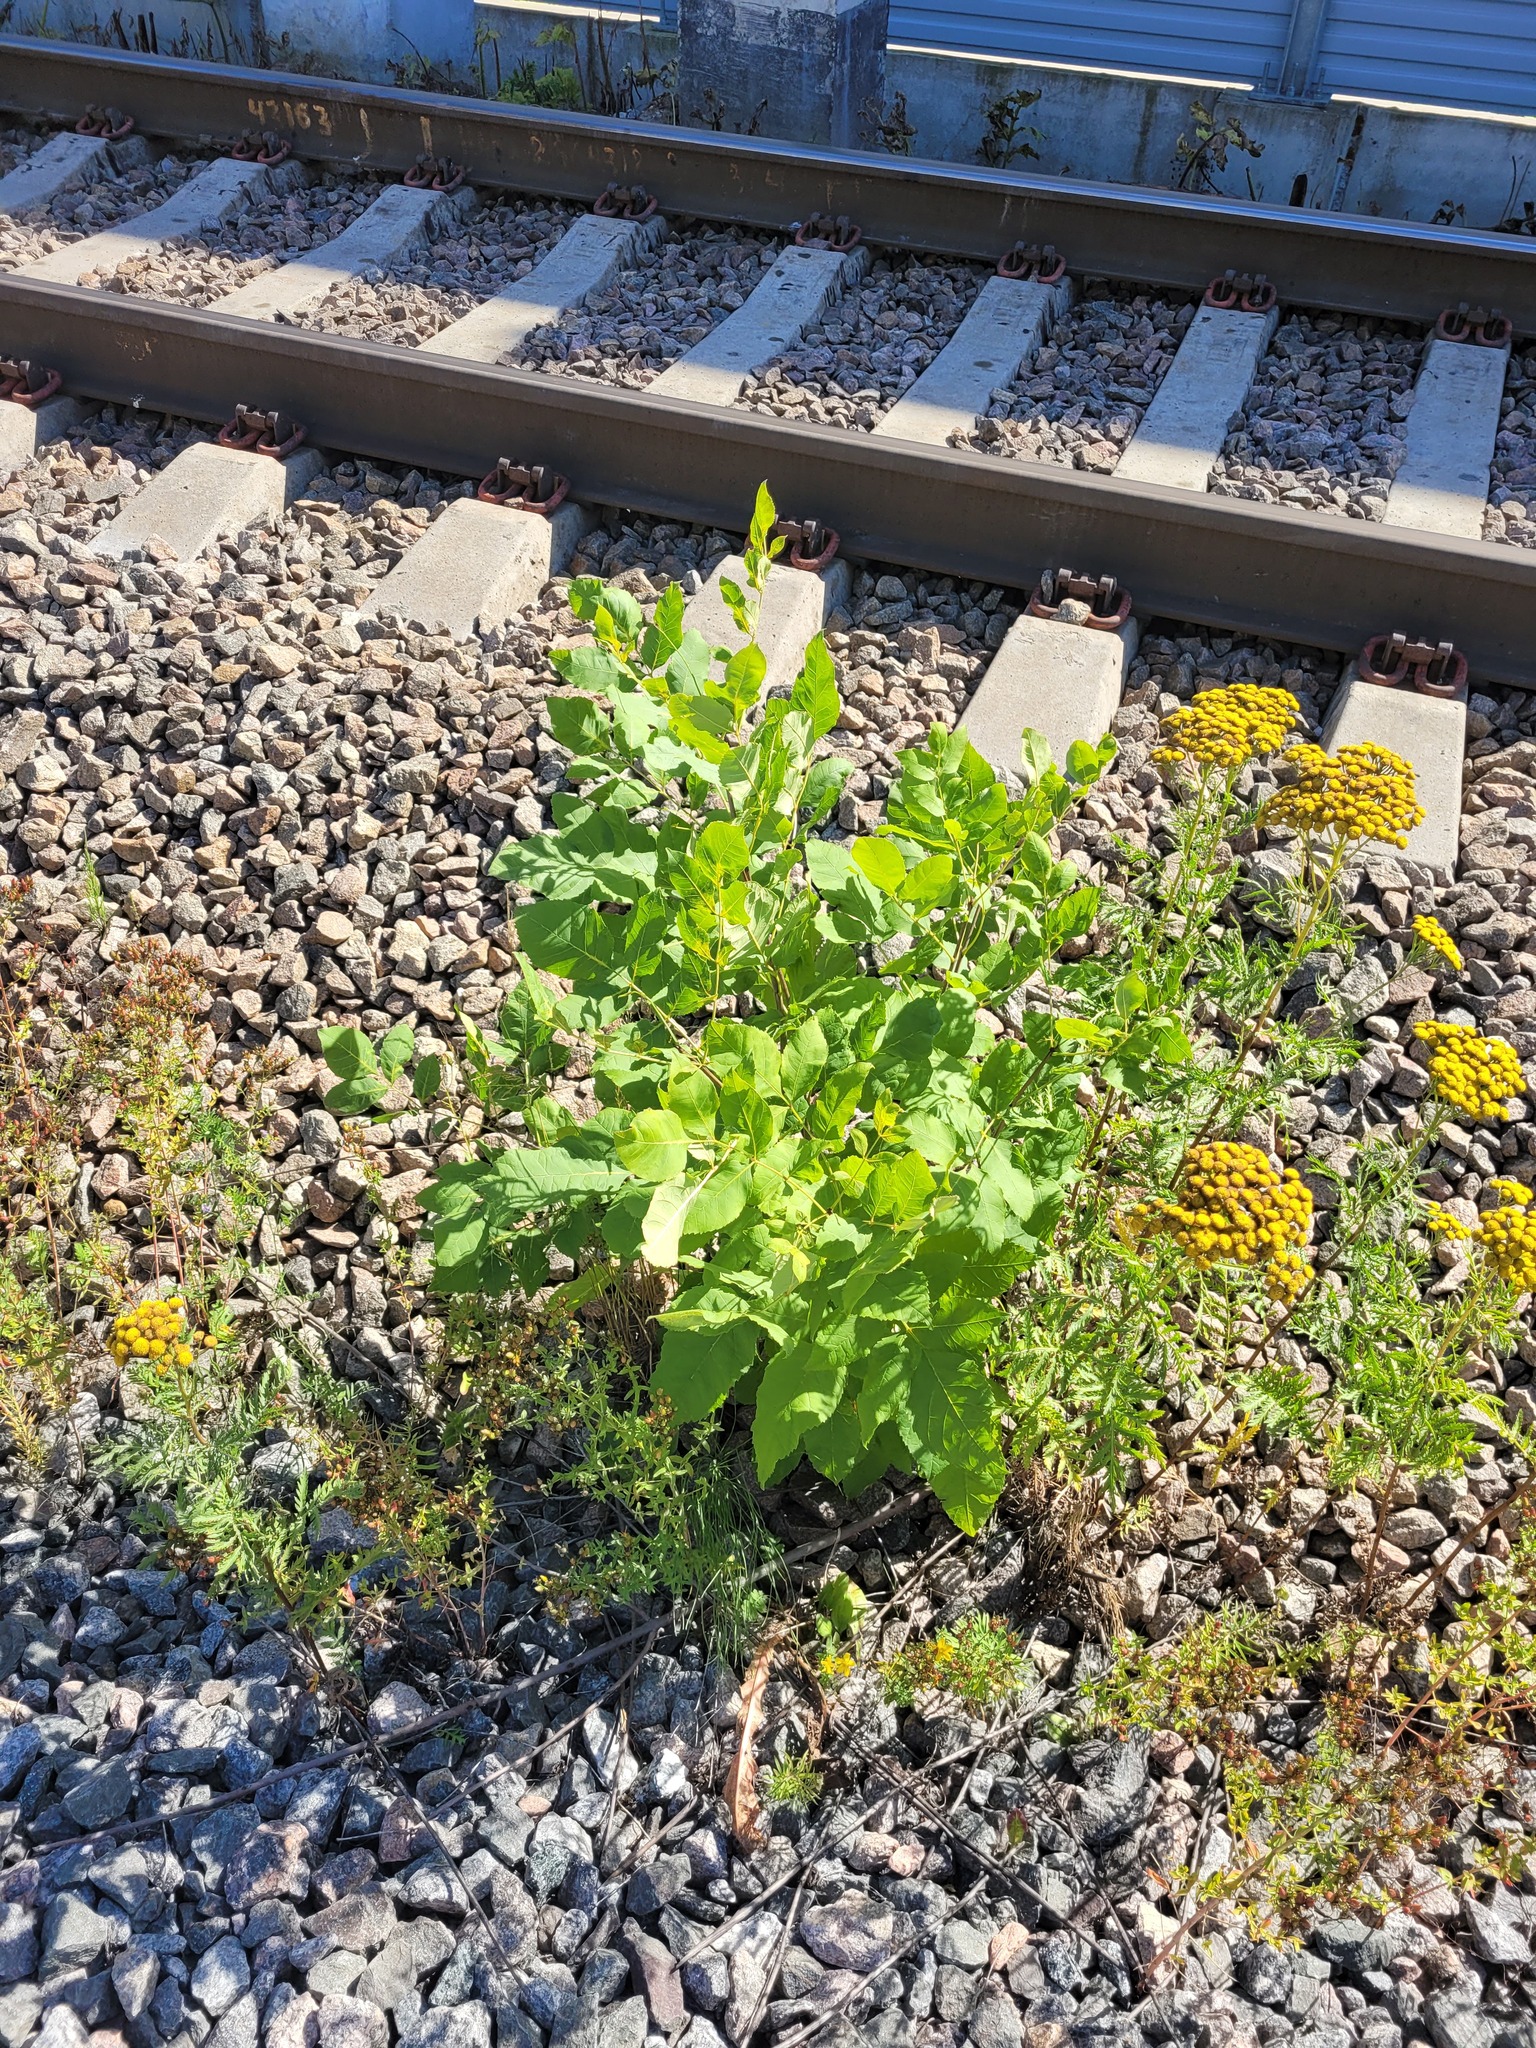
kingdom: Plantae
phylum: Tracheophyta
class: Magnoliopsida
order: Lamiales
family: Oleaceae
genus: Fraxinus
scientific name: Fraxinus pennsylvanica
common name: Green ash
